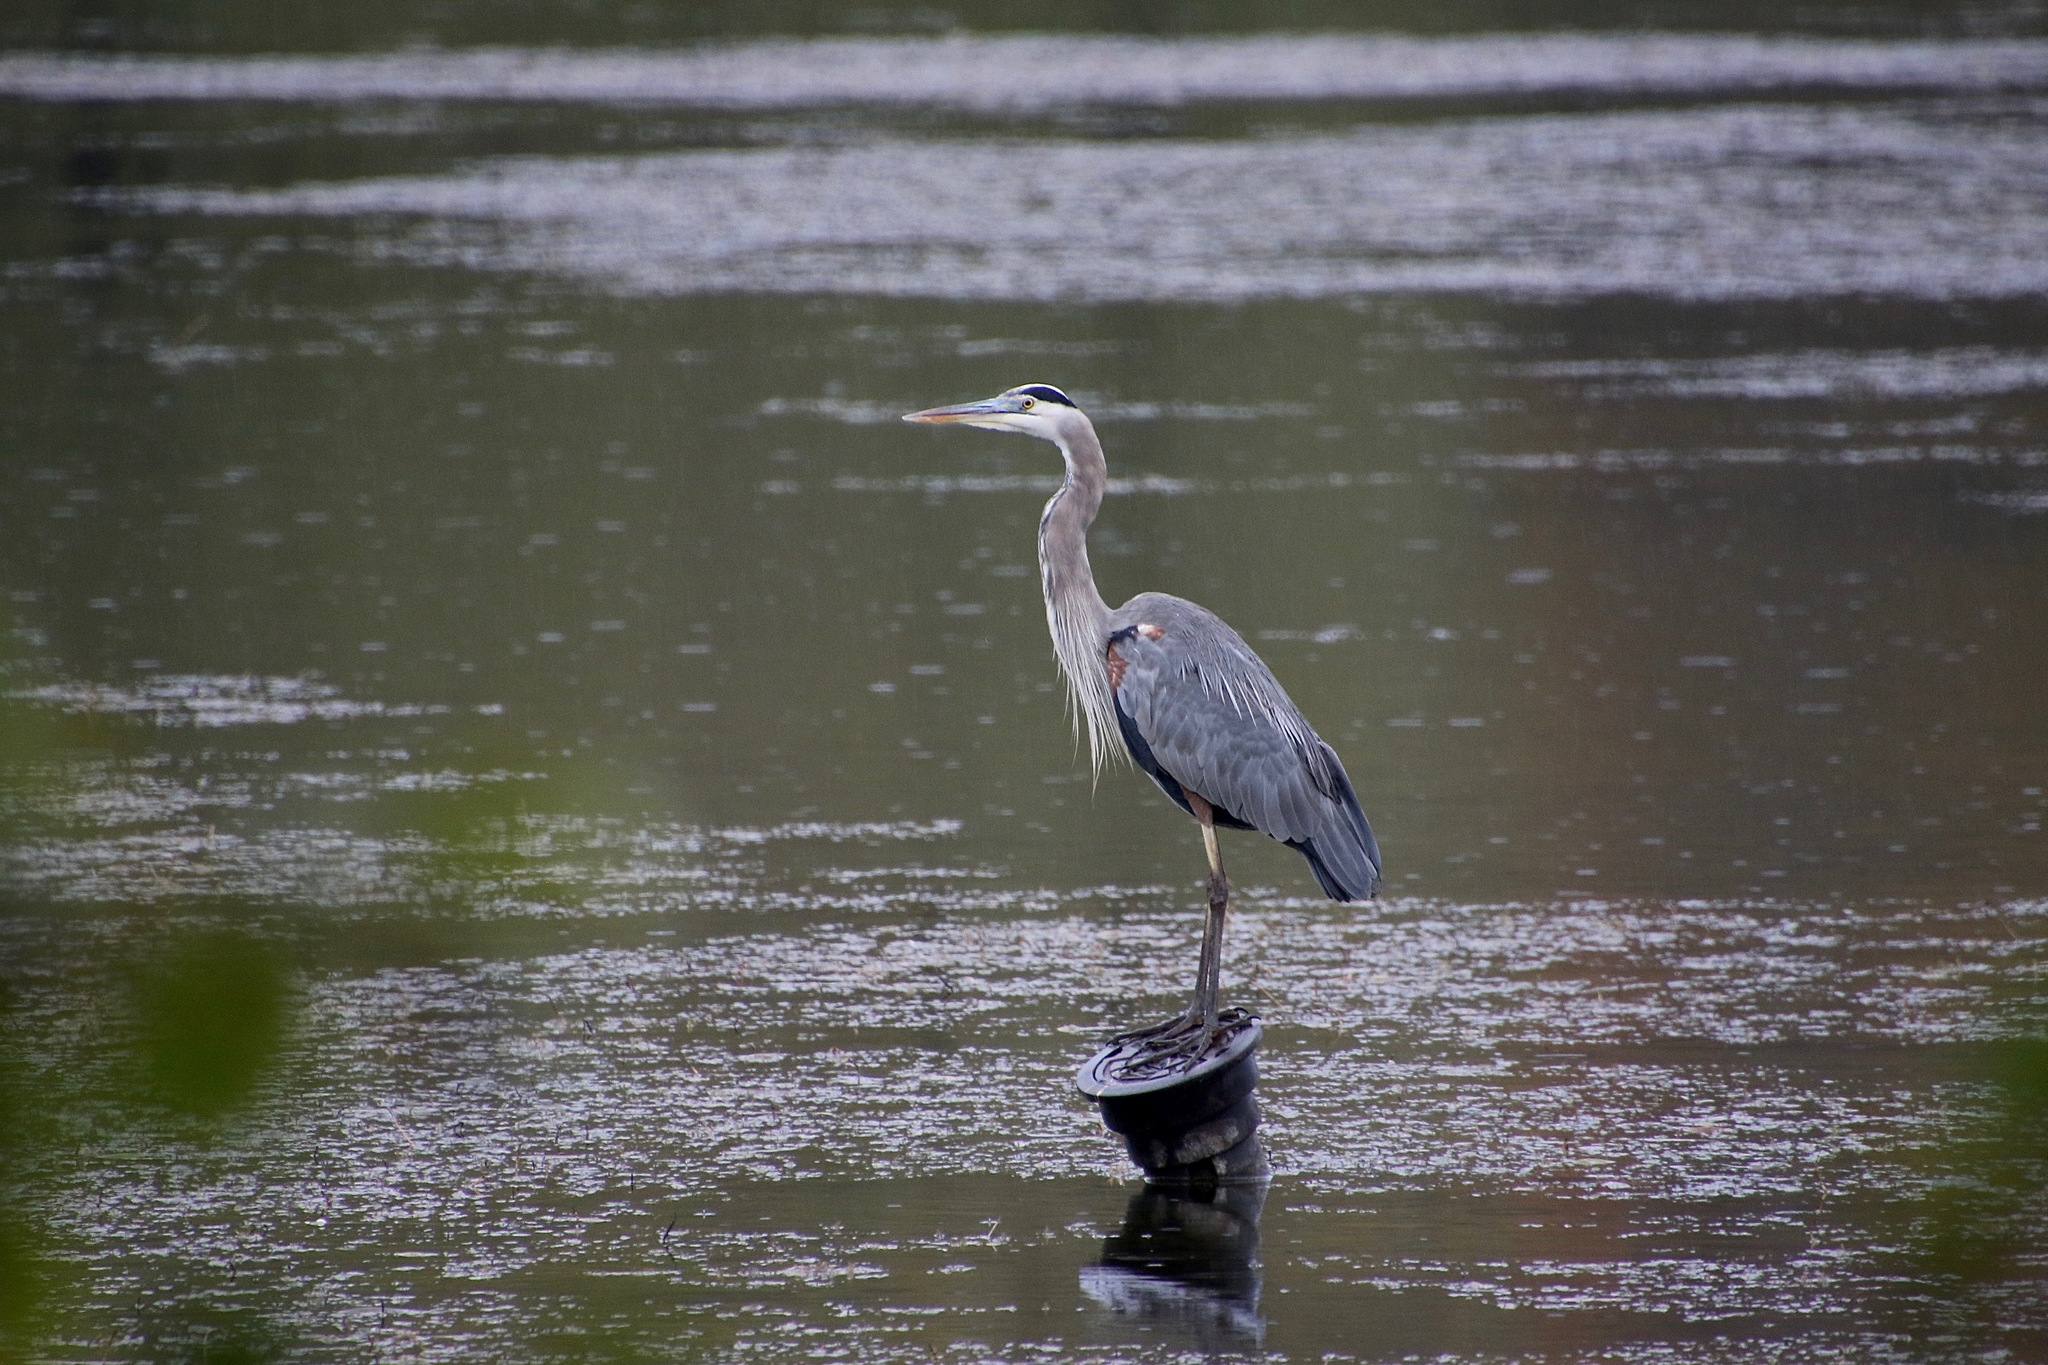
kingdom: Animalia
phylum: Chordata
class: Aves
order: Pelecaniformes
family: Ardeidae
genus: Ardea
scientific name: Ardea herodias
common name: Great blue heron
